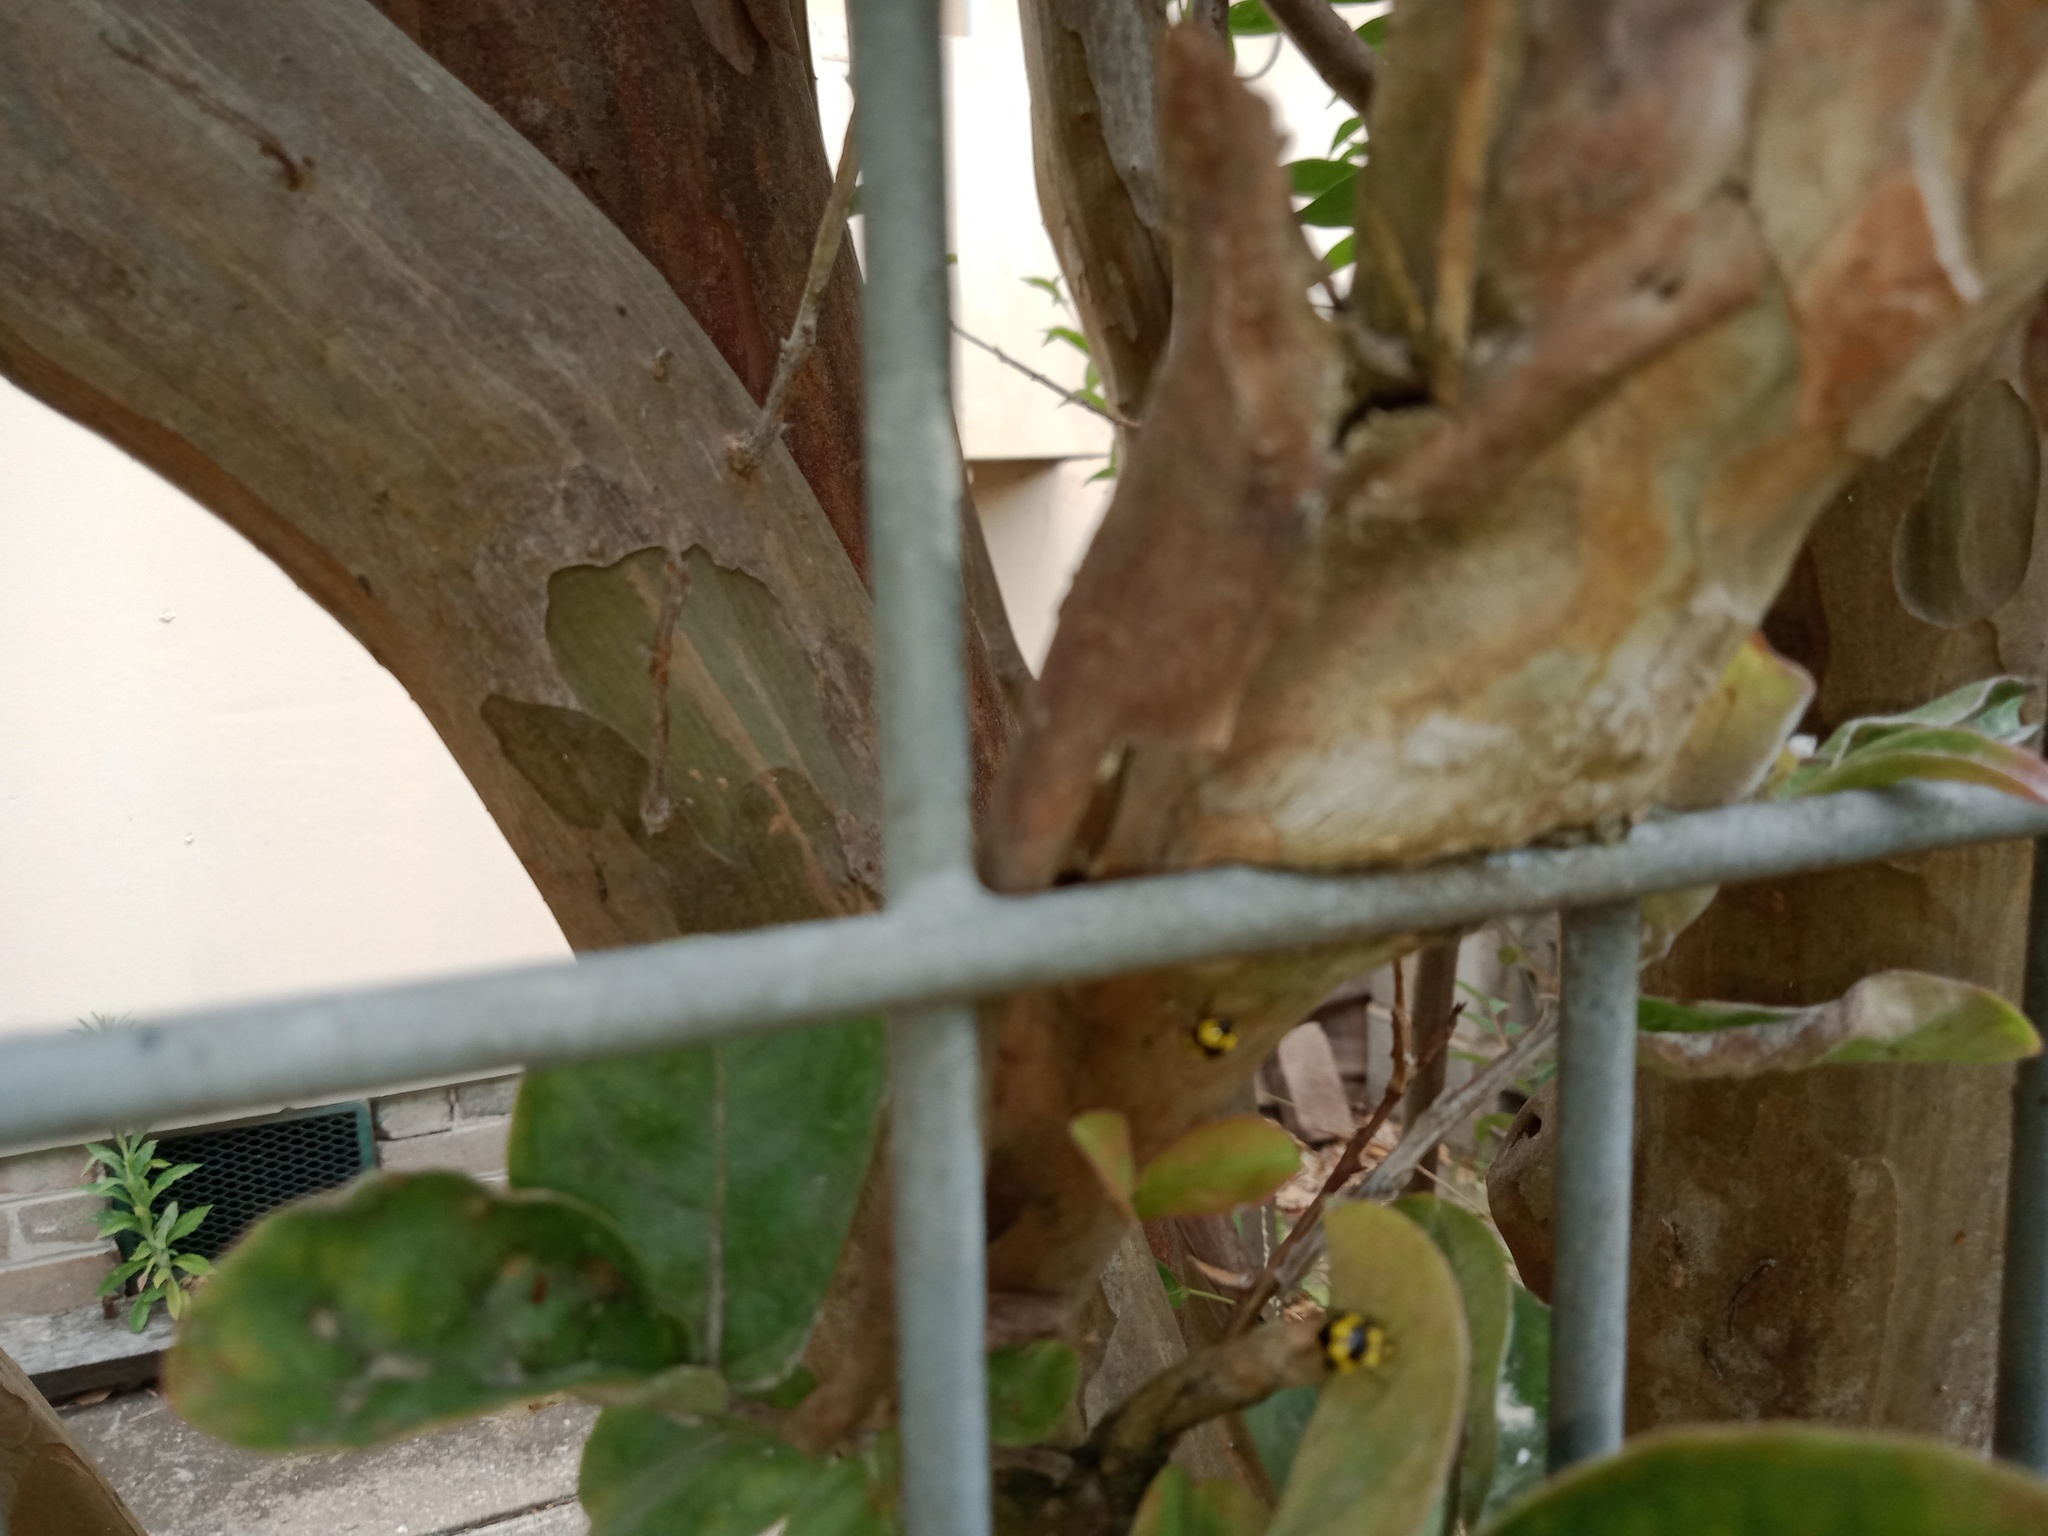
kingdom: Animalia
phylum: Arthropoda
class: Insecta
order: Coleoptera
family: Coccinellidae
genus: Illeis
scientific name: Illeis galbula
